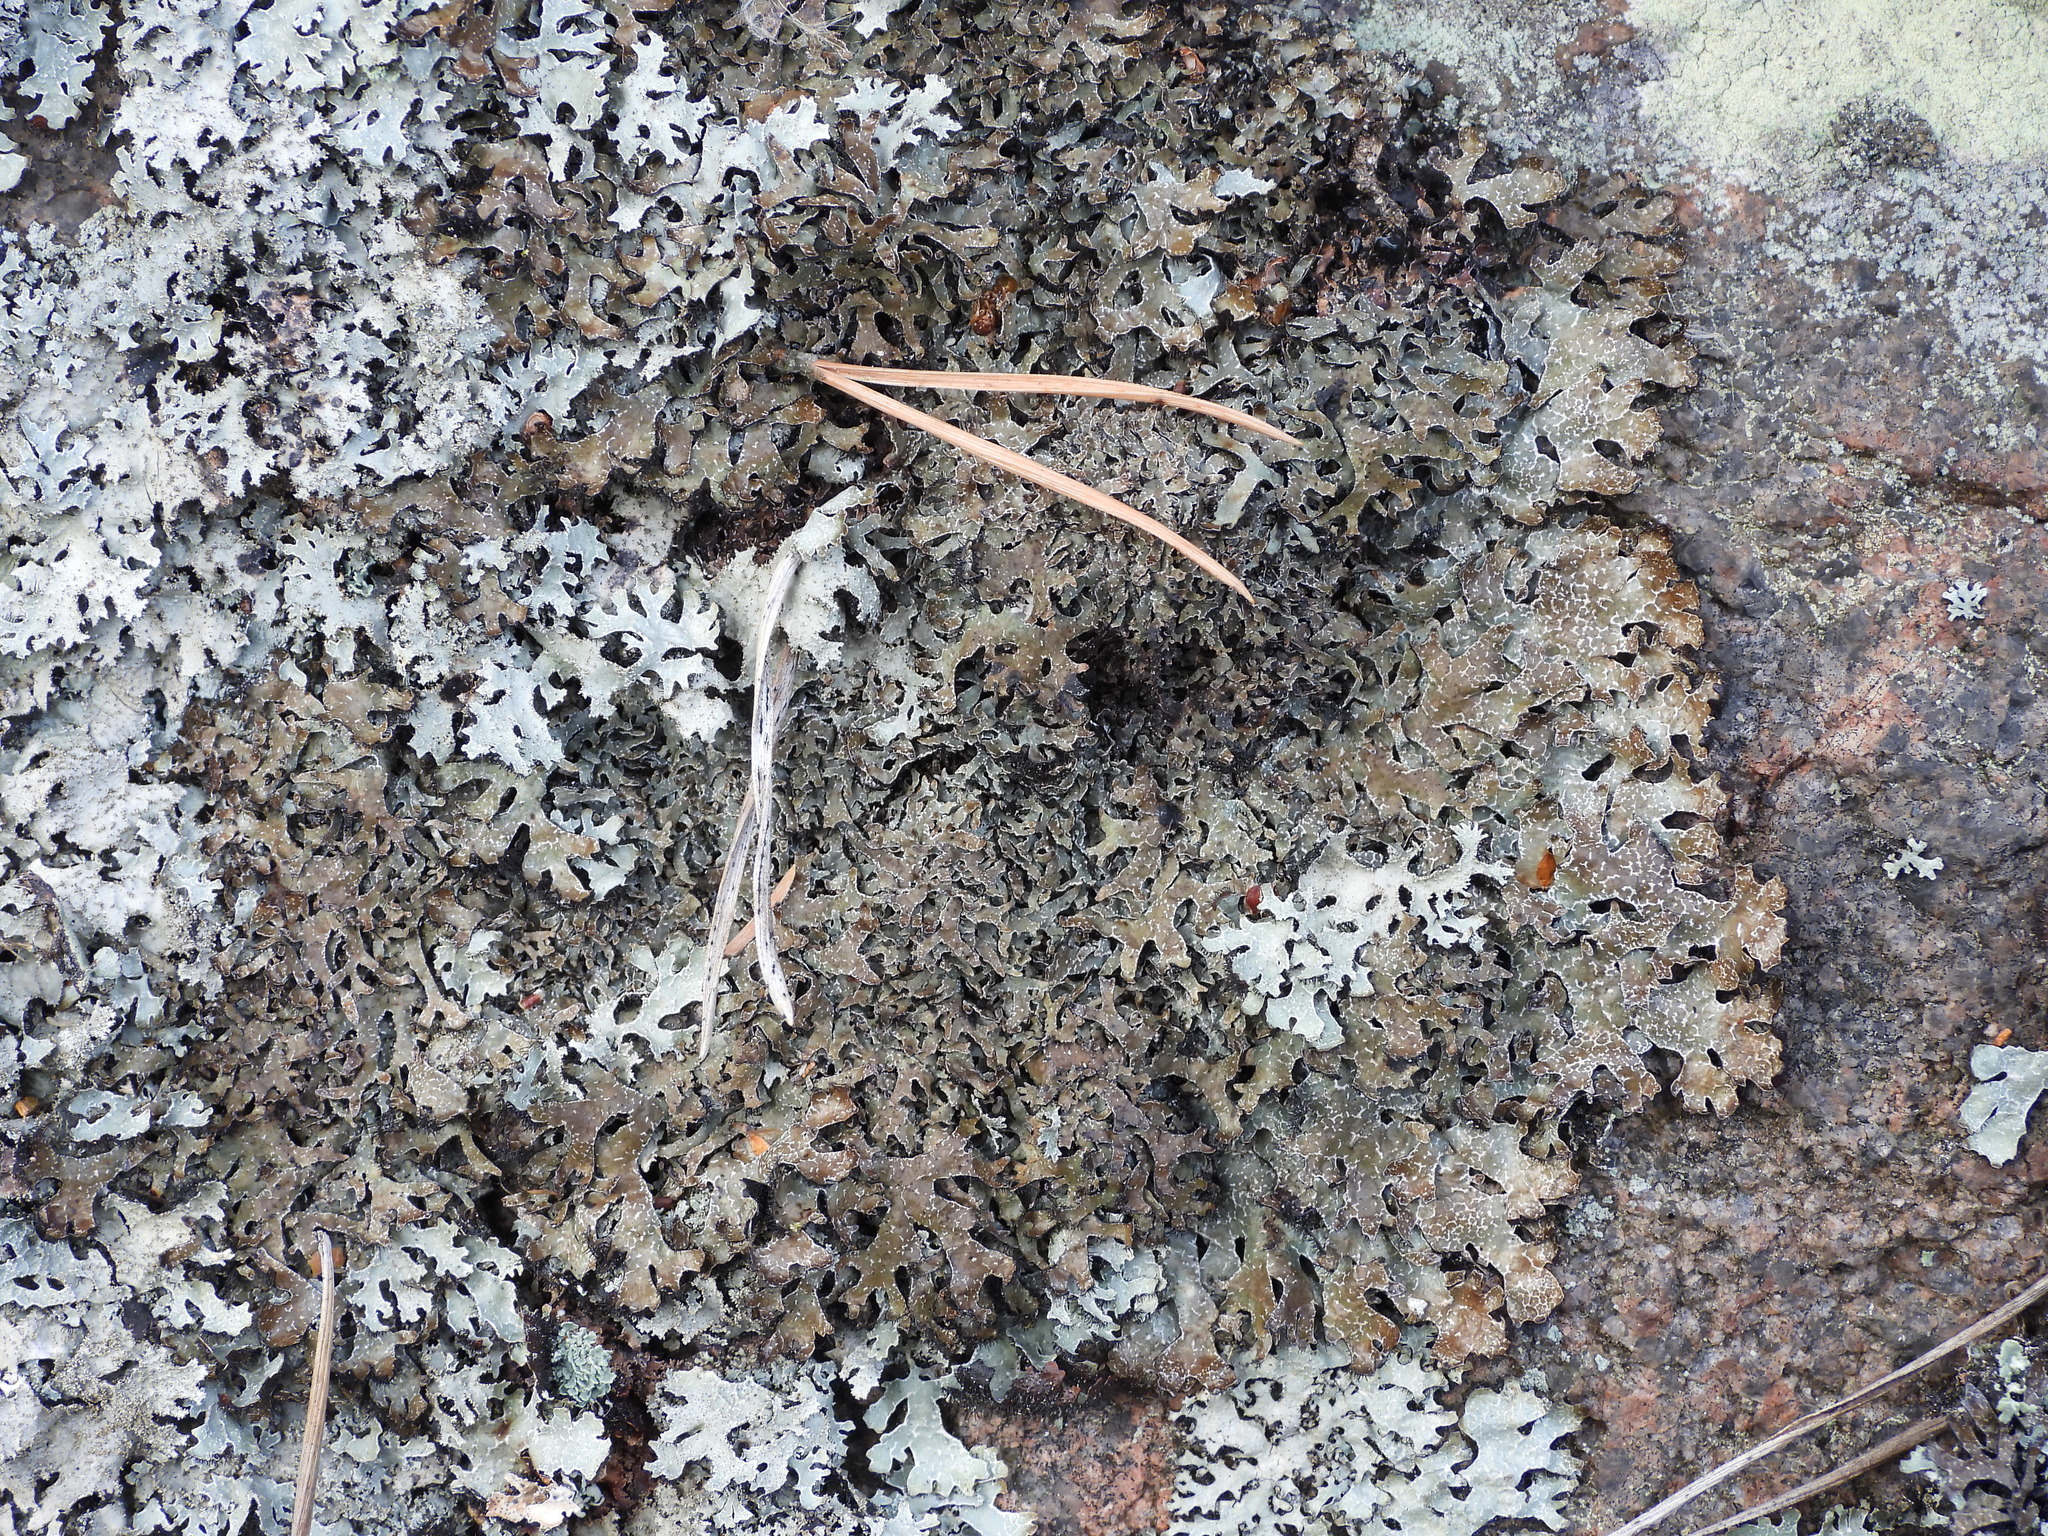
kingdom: Fungi
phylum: Ascomycota
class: Lecanoromycetes
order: Lecanorales
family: Parmeliaceae
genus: Parmelia
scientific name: Parmelia omphalodes
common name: Smoky crottle
